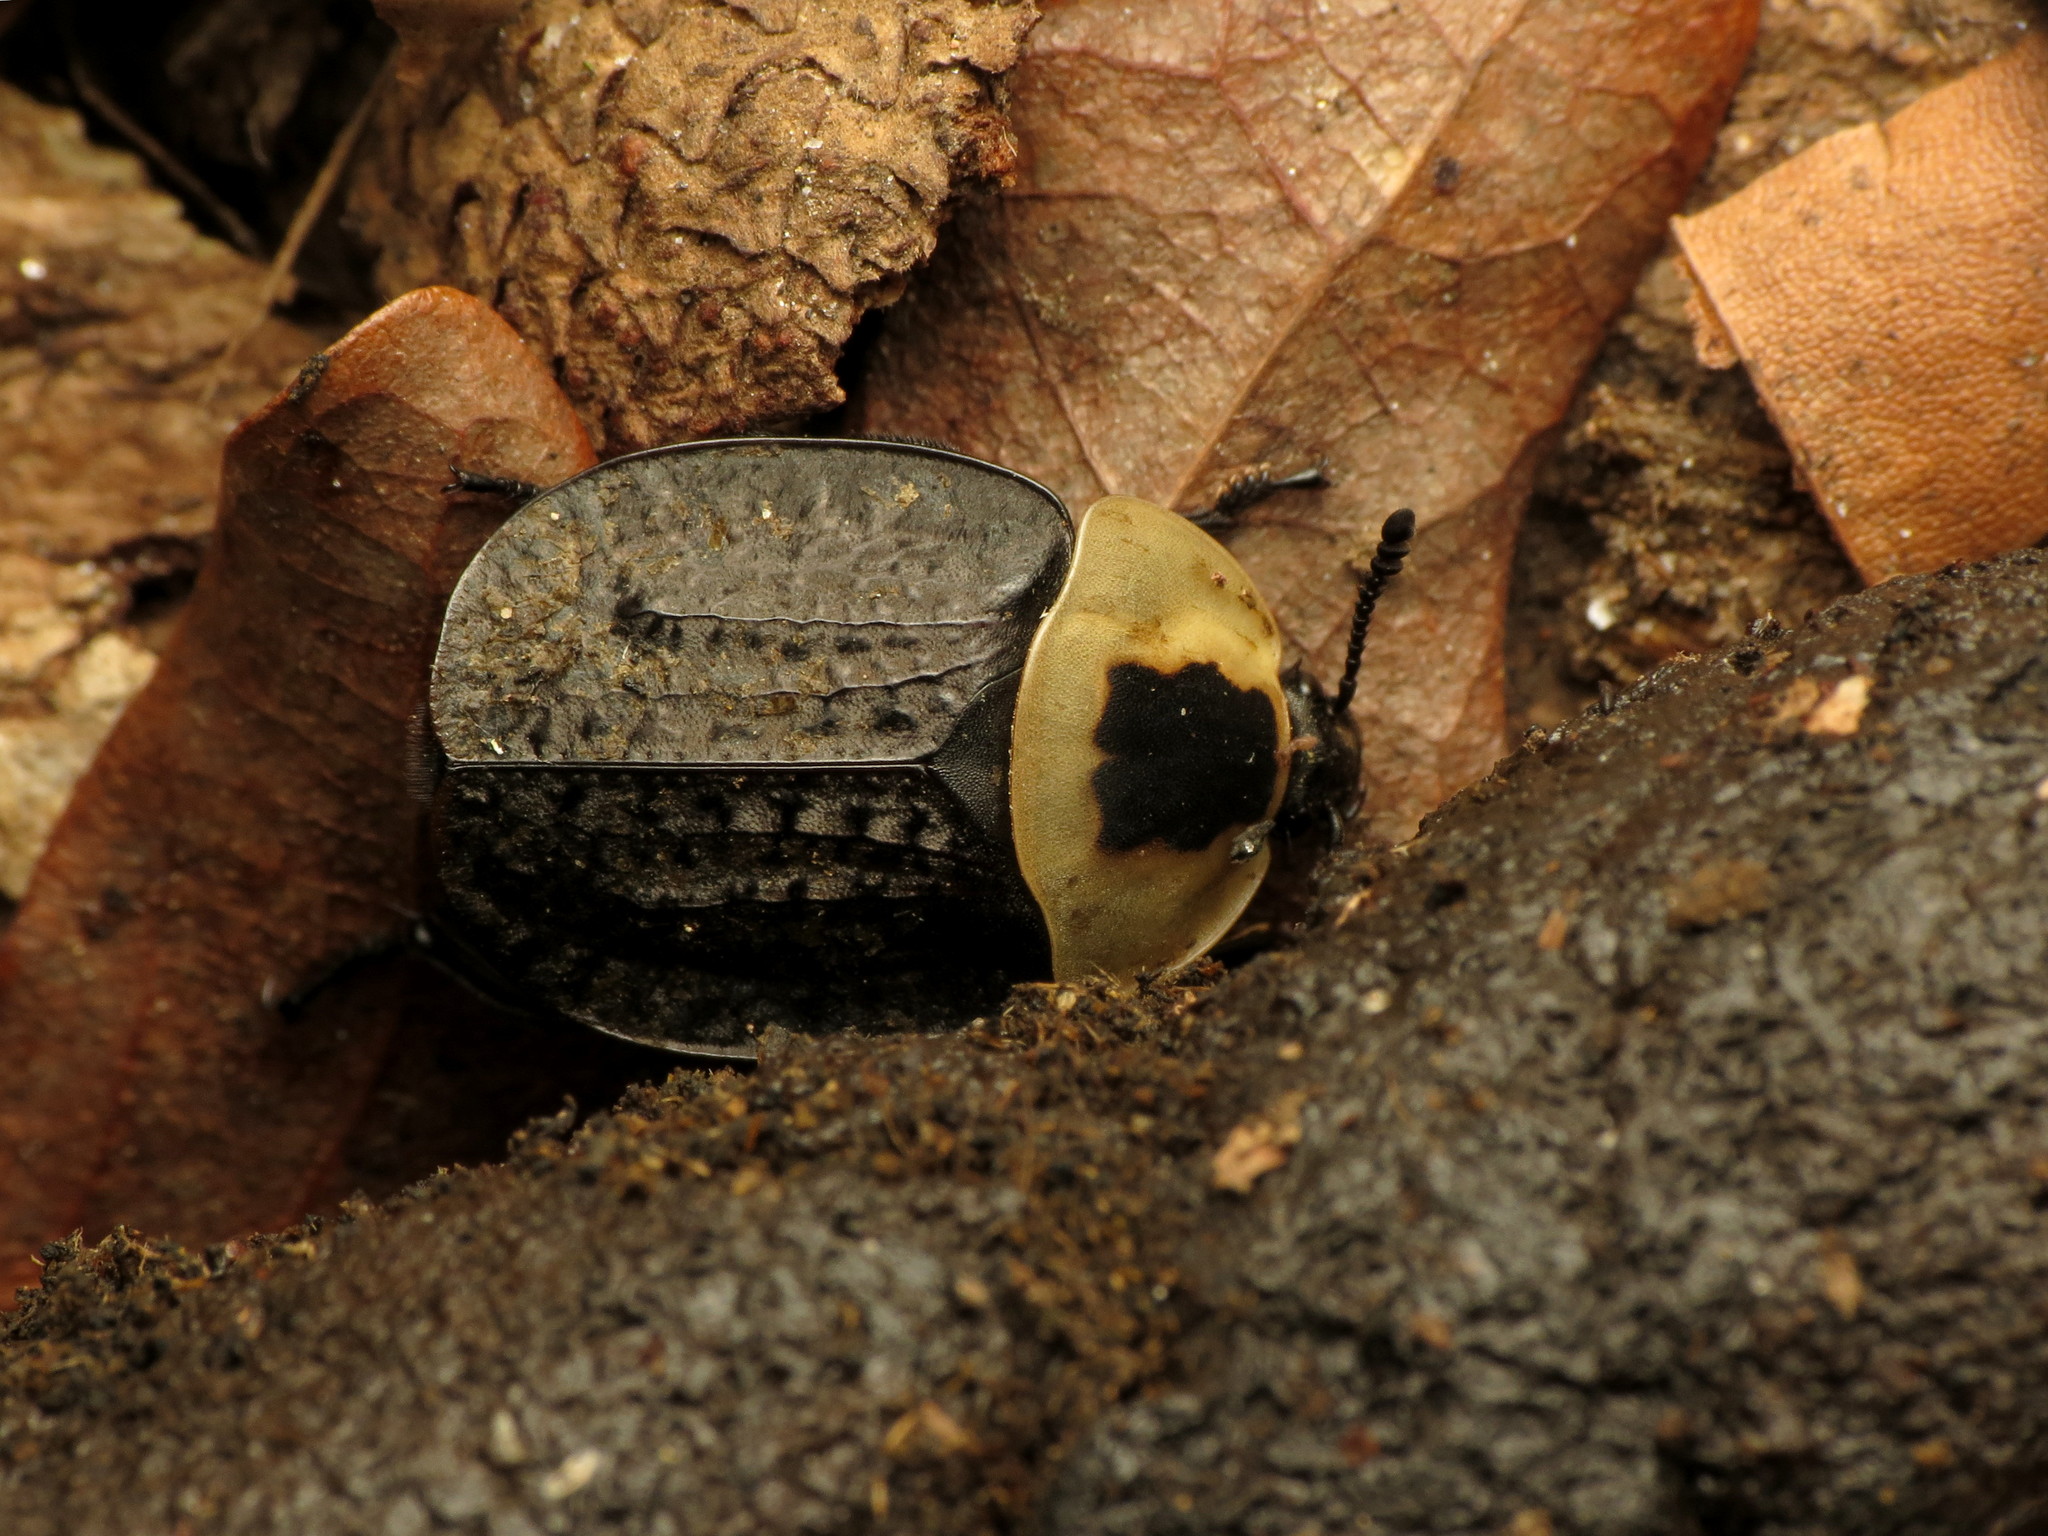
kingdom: Animalia
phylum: Arthropoda
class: Insecta
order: Coleoptera
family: Staphylinidae
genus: Necrophila
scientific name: Necrophila americana
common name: American carrion beetle
